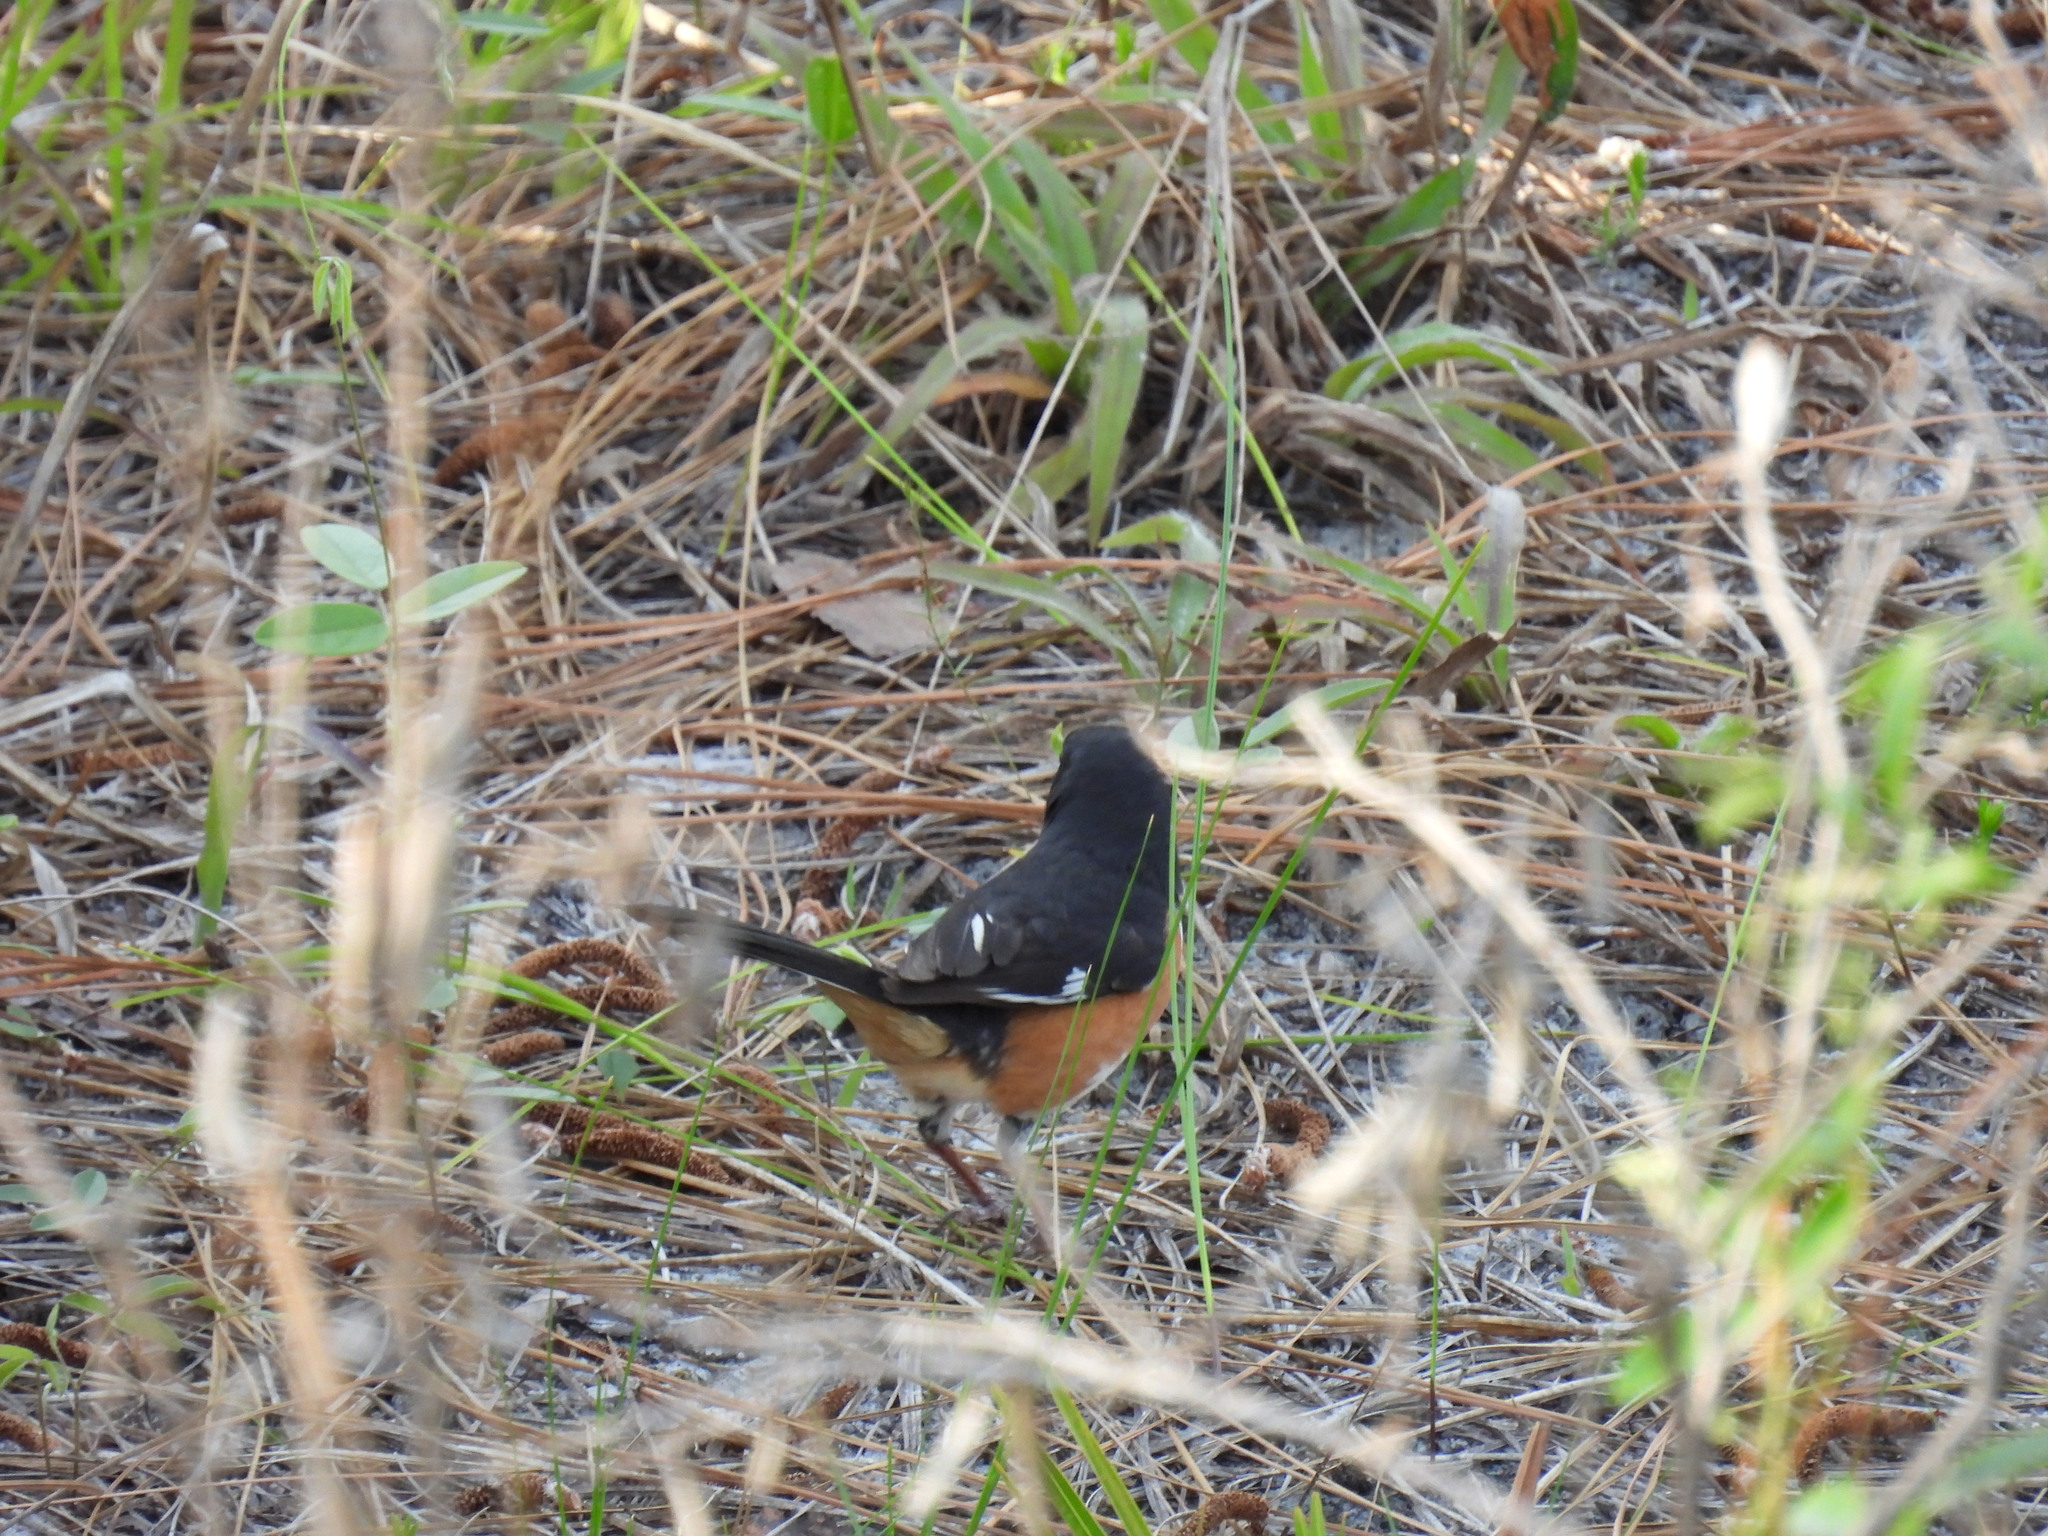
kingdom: Animalia
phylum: Chordata
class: Aves
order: Passeriformes
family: Passerellidae
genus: Pipilo
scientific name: Pipilo erythrophthalmus
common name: Eastern towhee
